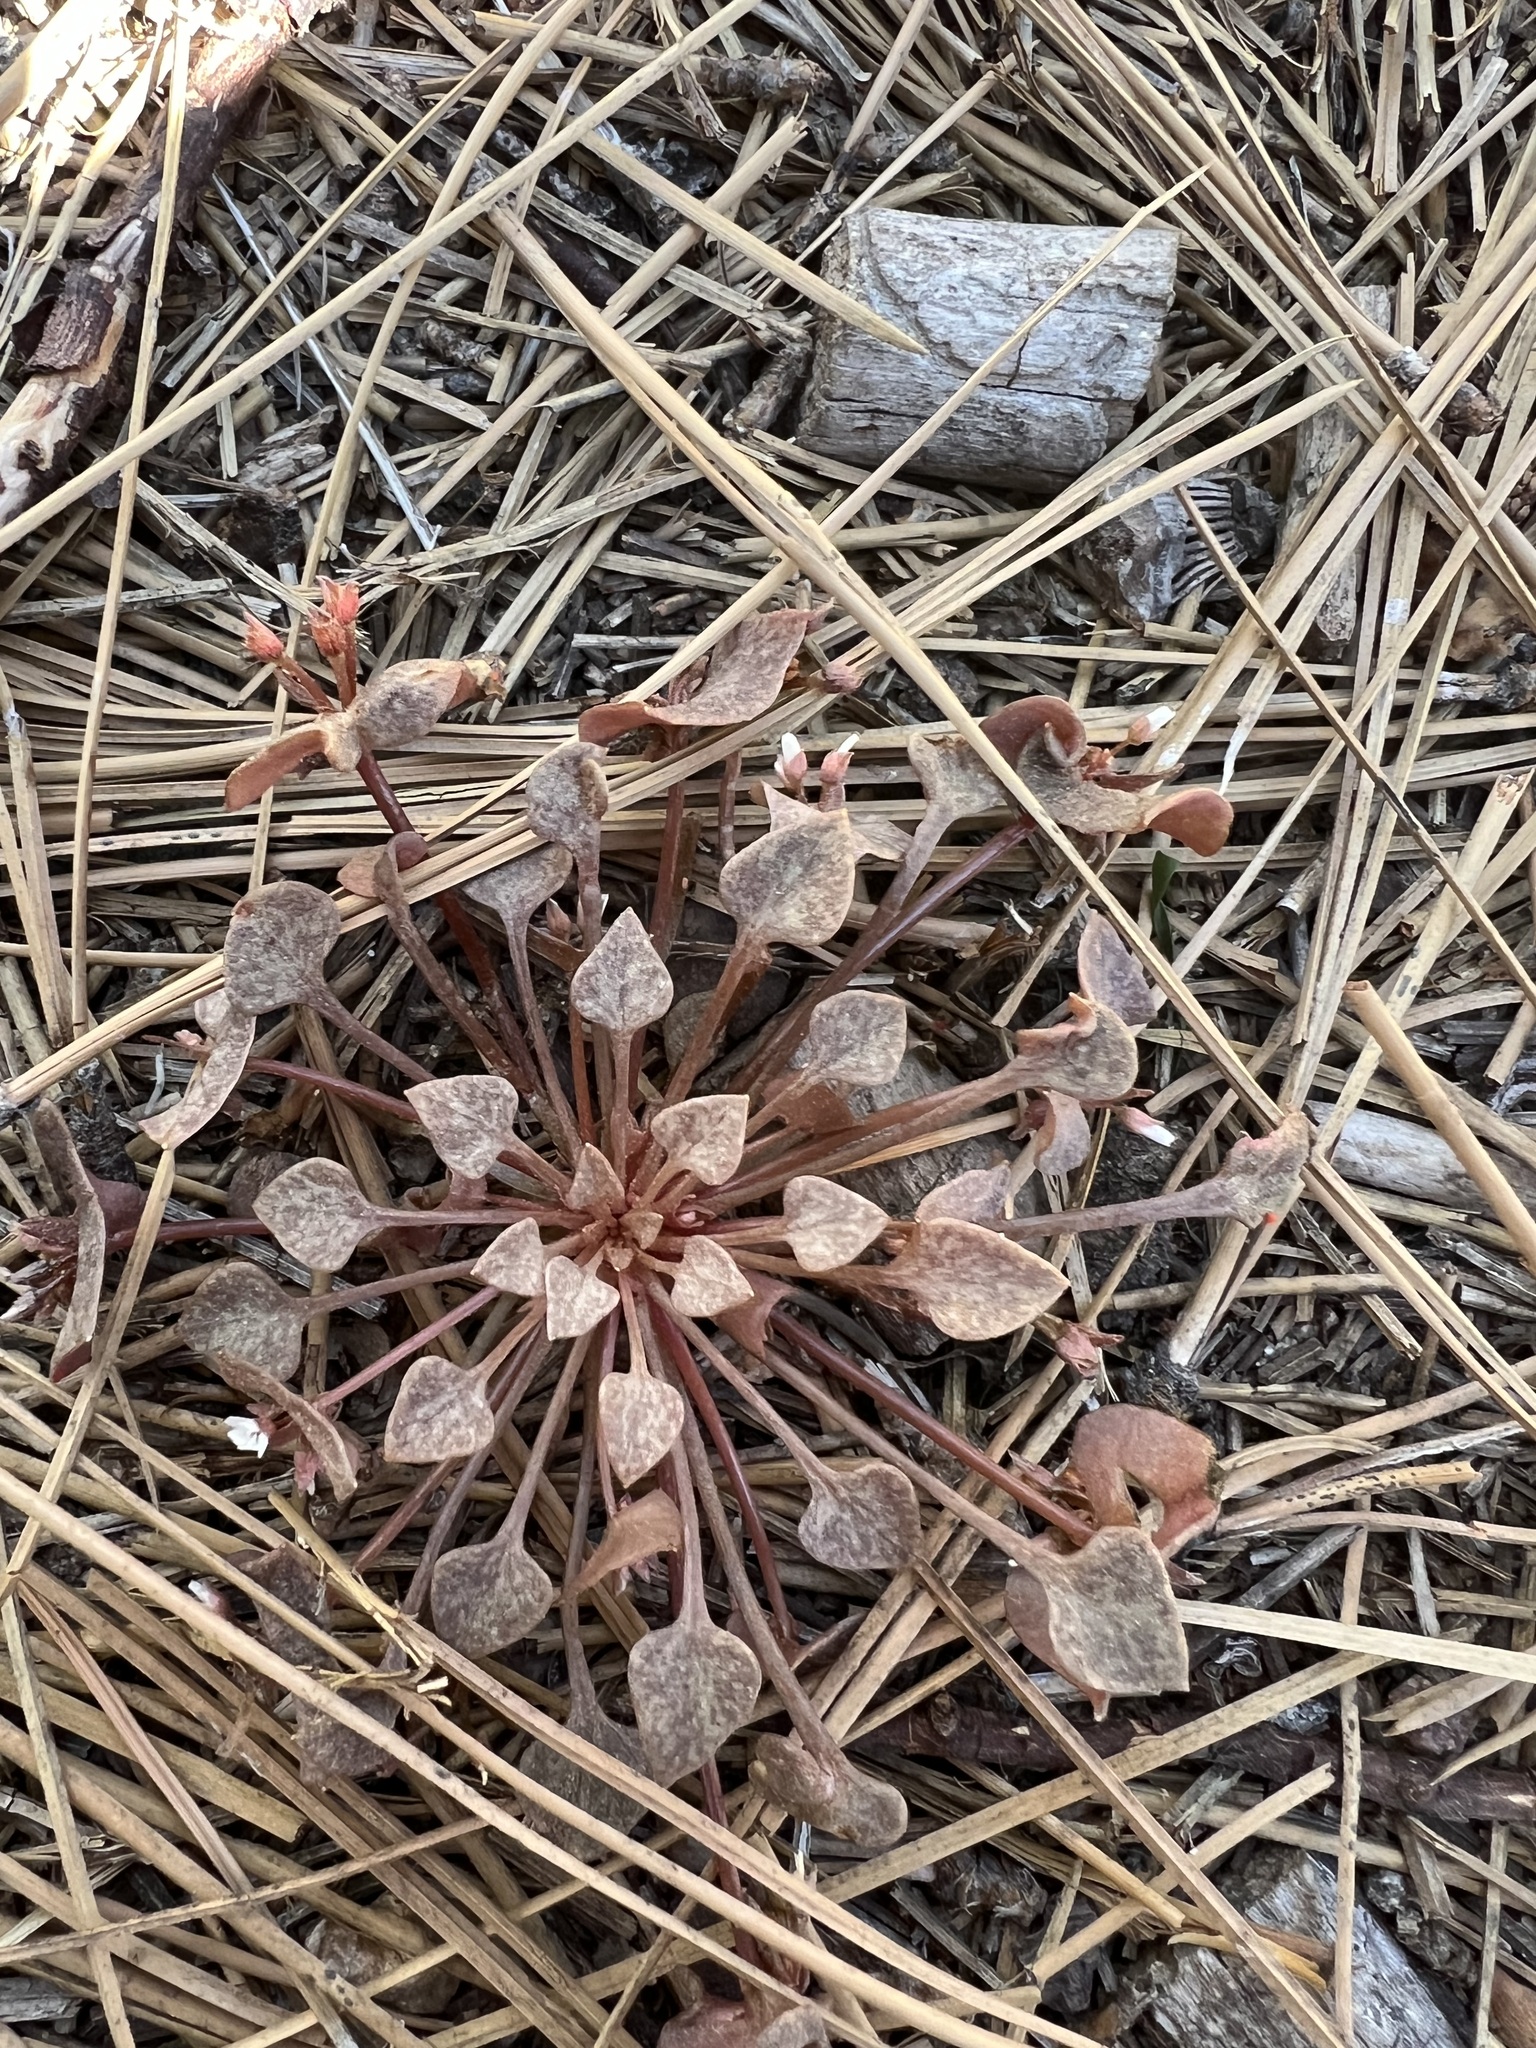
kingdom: Plantae
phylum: Tracheophyta
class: Magnoliopsida
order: Caryophyllales
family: Montiaceae
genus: Claytonia
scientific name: Claytonia rubra
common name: Erubescent miner's-lettuce
